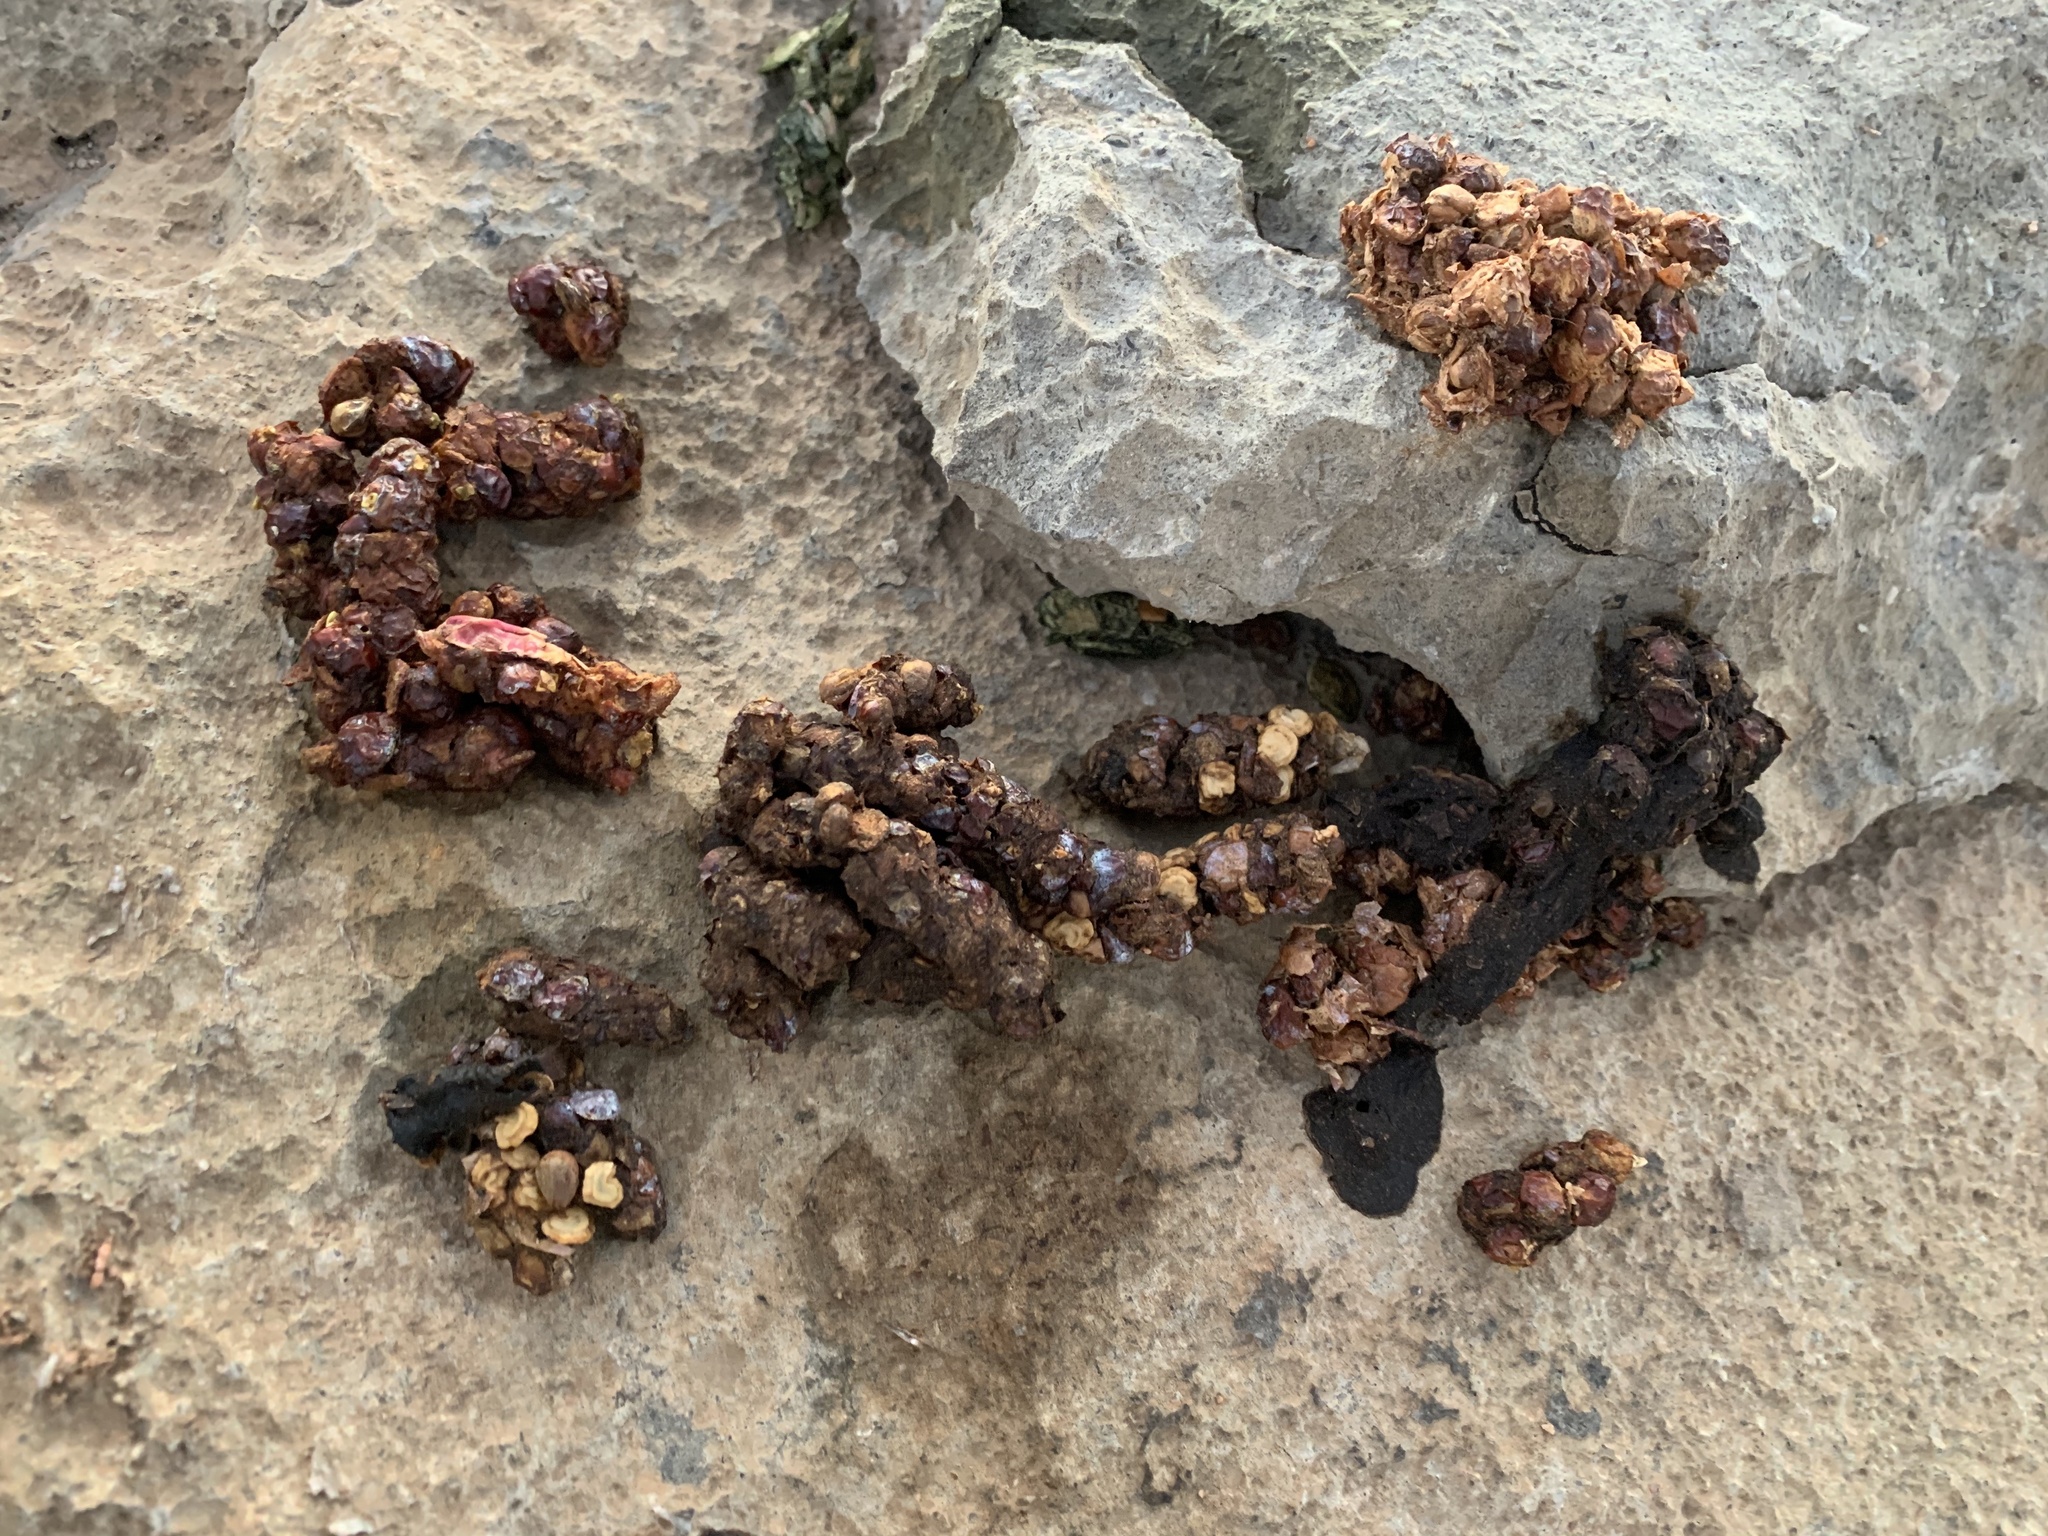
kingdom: Animalia
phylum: Chordata
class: Mammalia
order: Carnivora
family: Procyonidae
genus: Bassariscus
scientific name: Bassariscus astutus
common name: Ringtail
